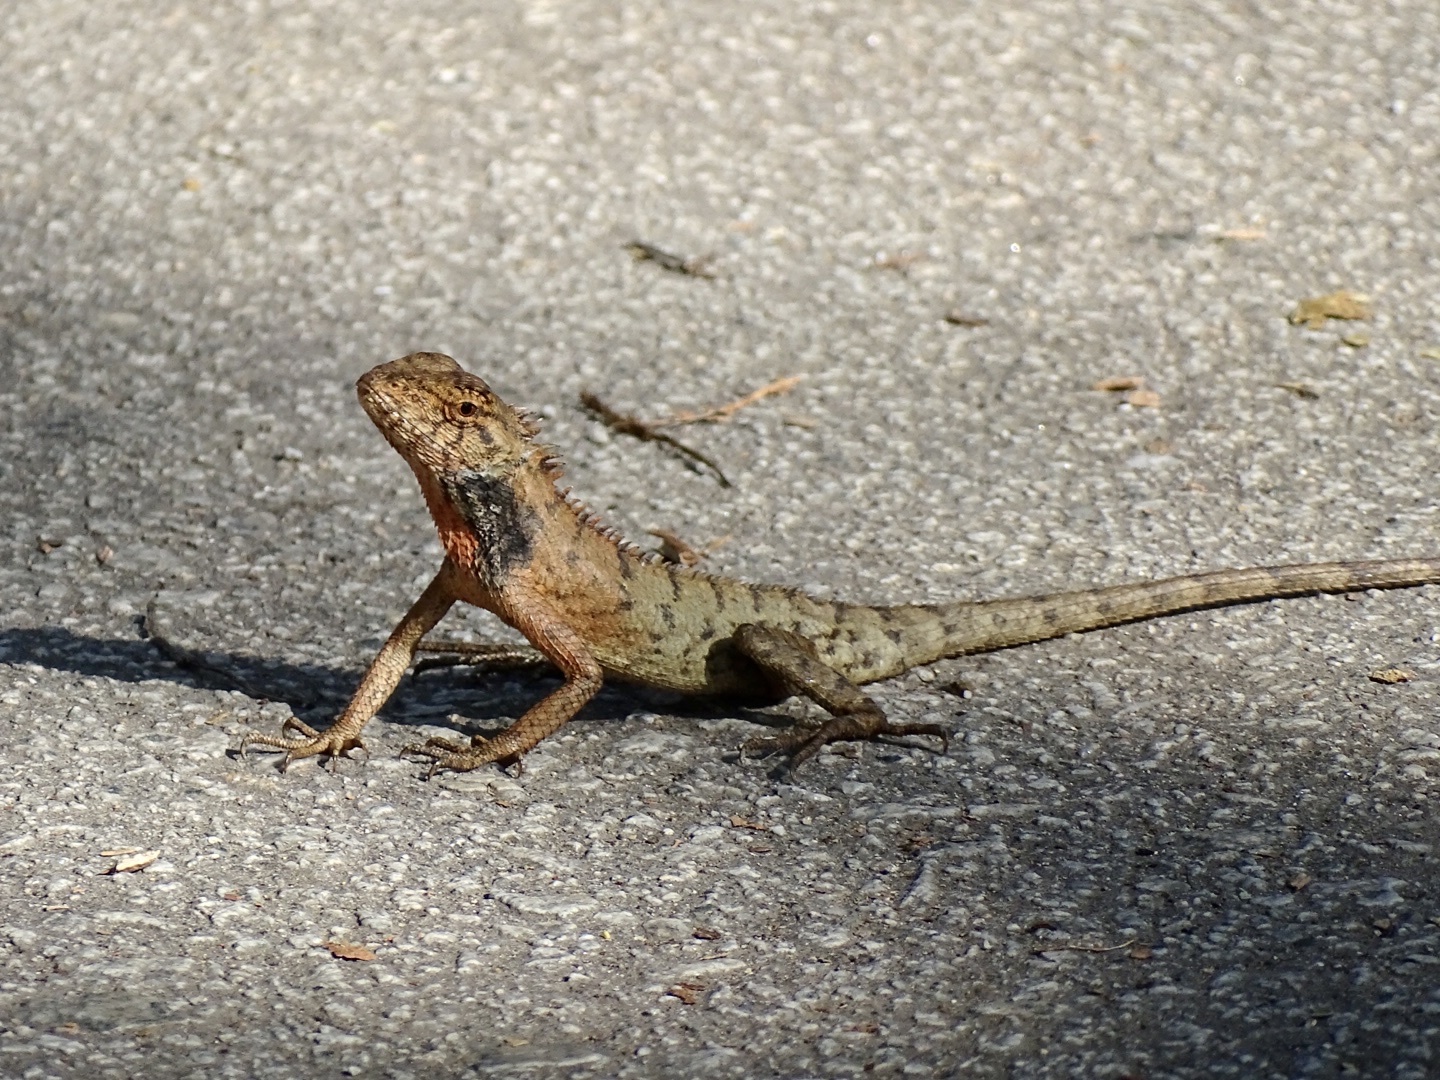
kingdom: Animalia
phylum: Chordata
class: Squamata
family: Agamidae
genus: Calotes
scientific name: Calotes versicolor
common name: Oriental garden lizard
